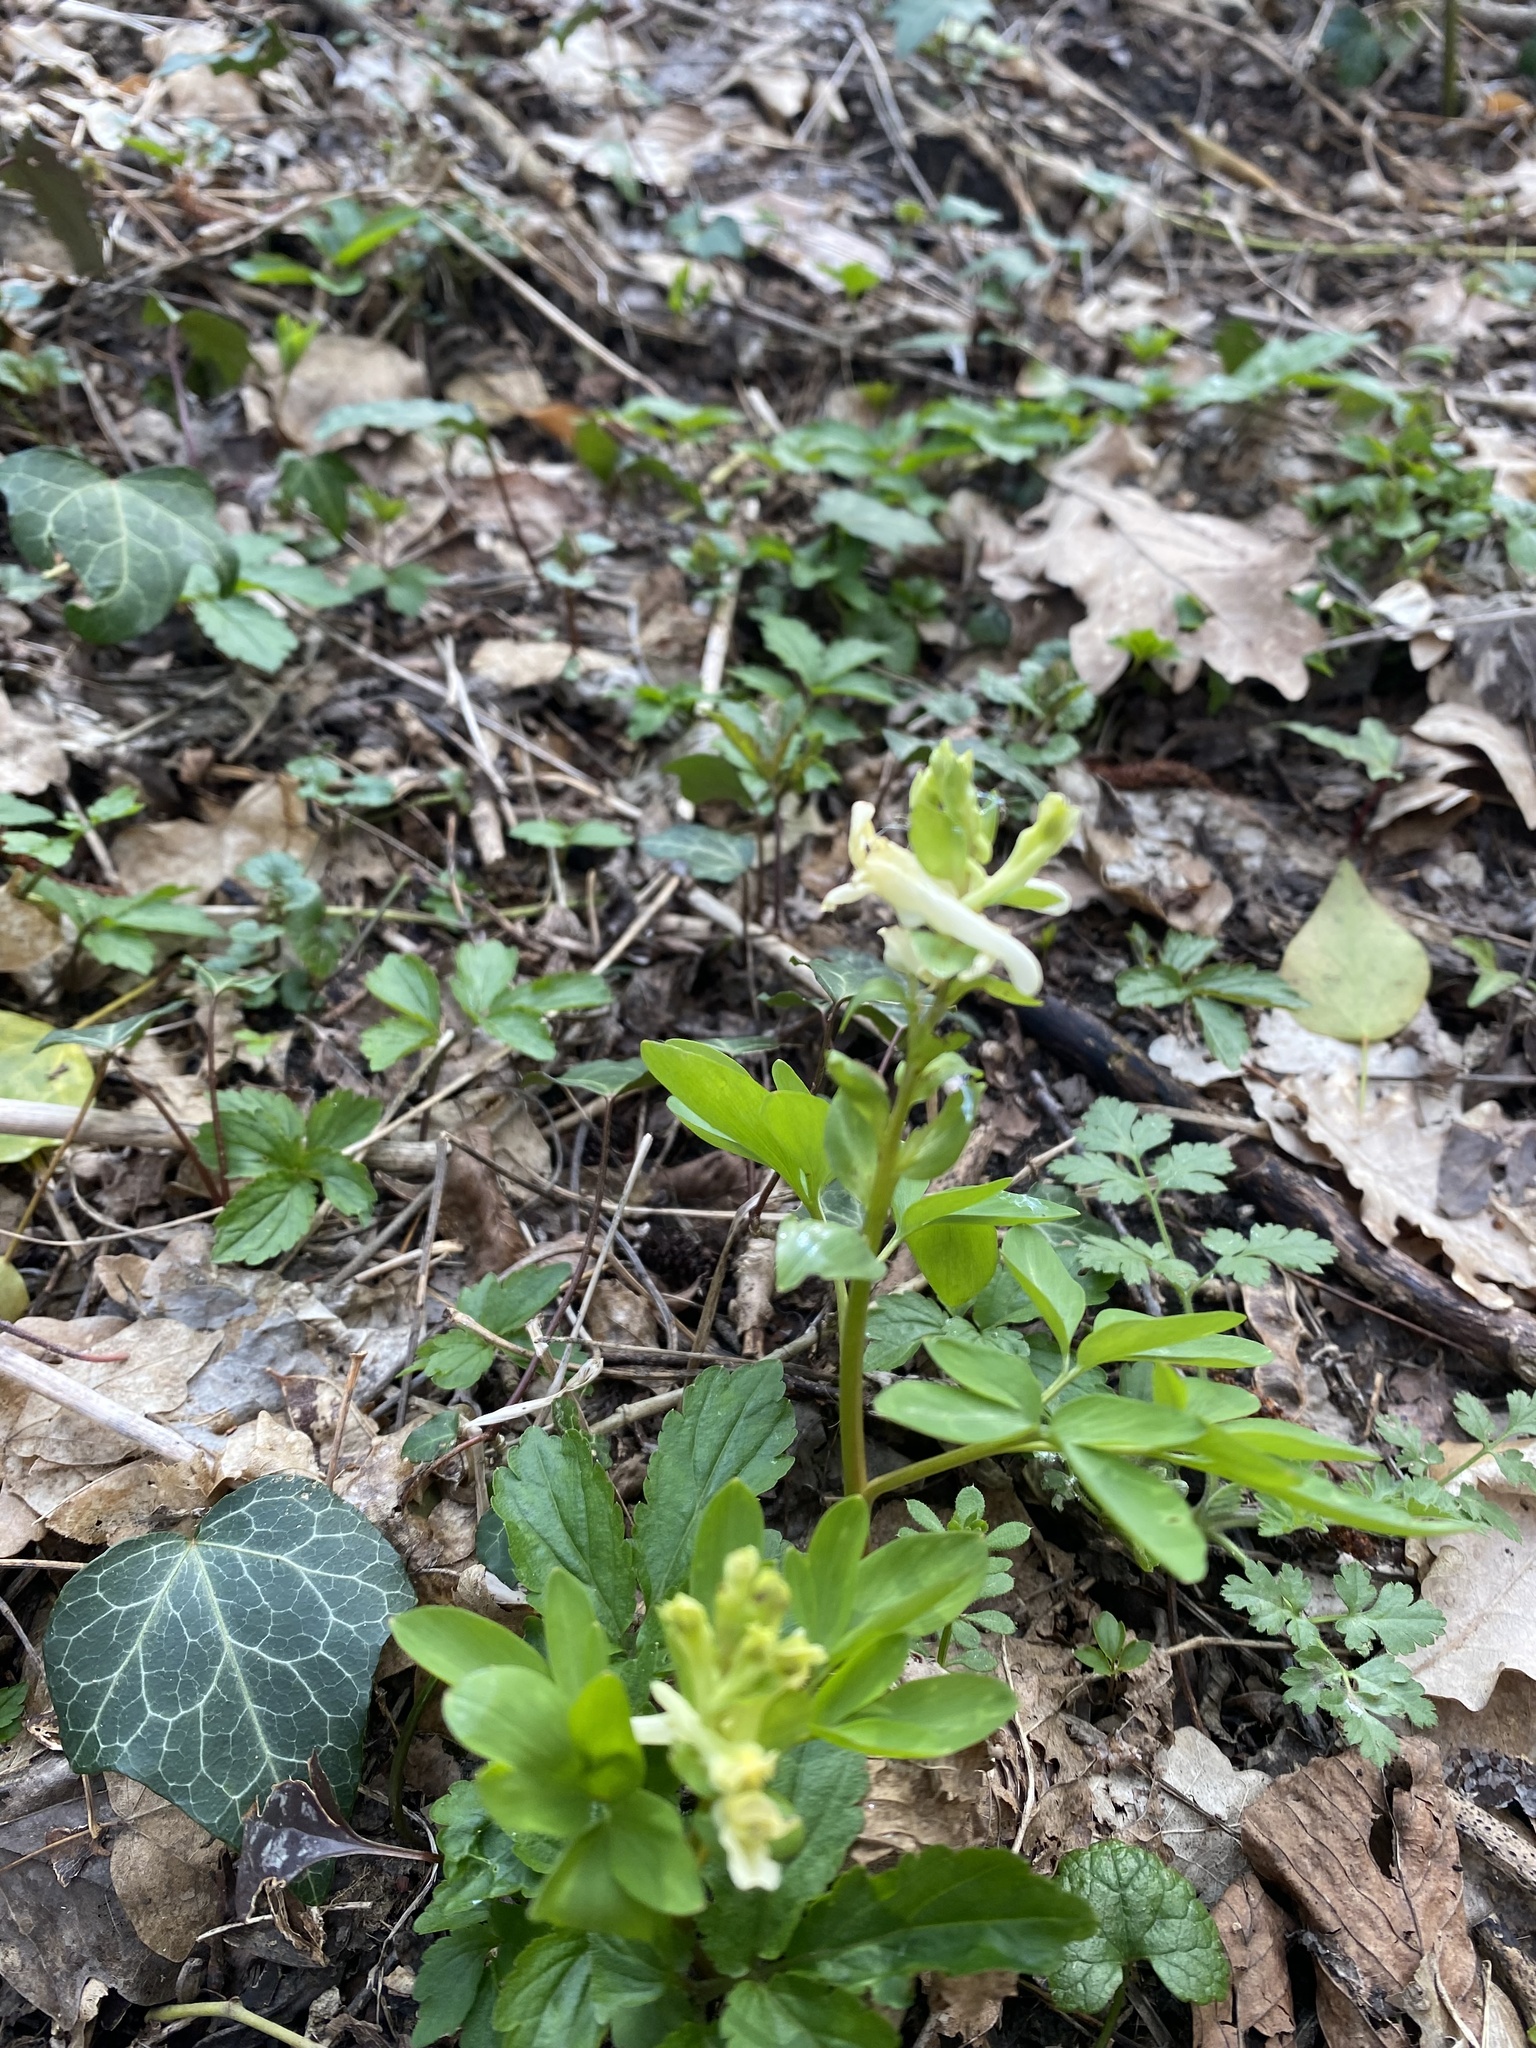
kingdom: Plantae
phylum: Tracheophyta
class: Magnoliopsida
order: Ranunculales
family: Papaveraceae
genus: Corydalis
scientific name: Corydalis cava
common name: Hollowroot
